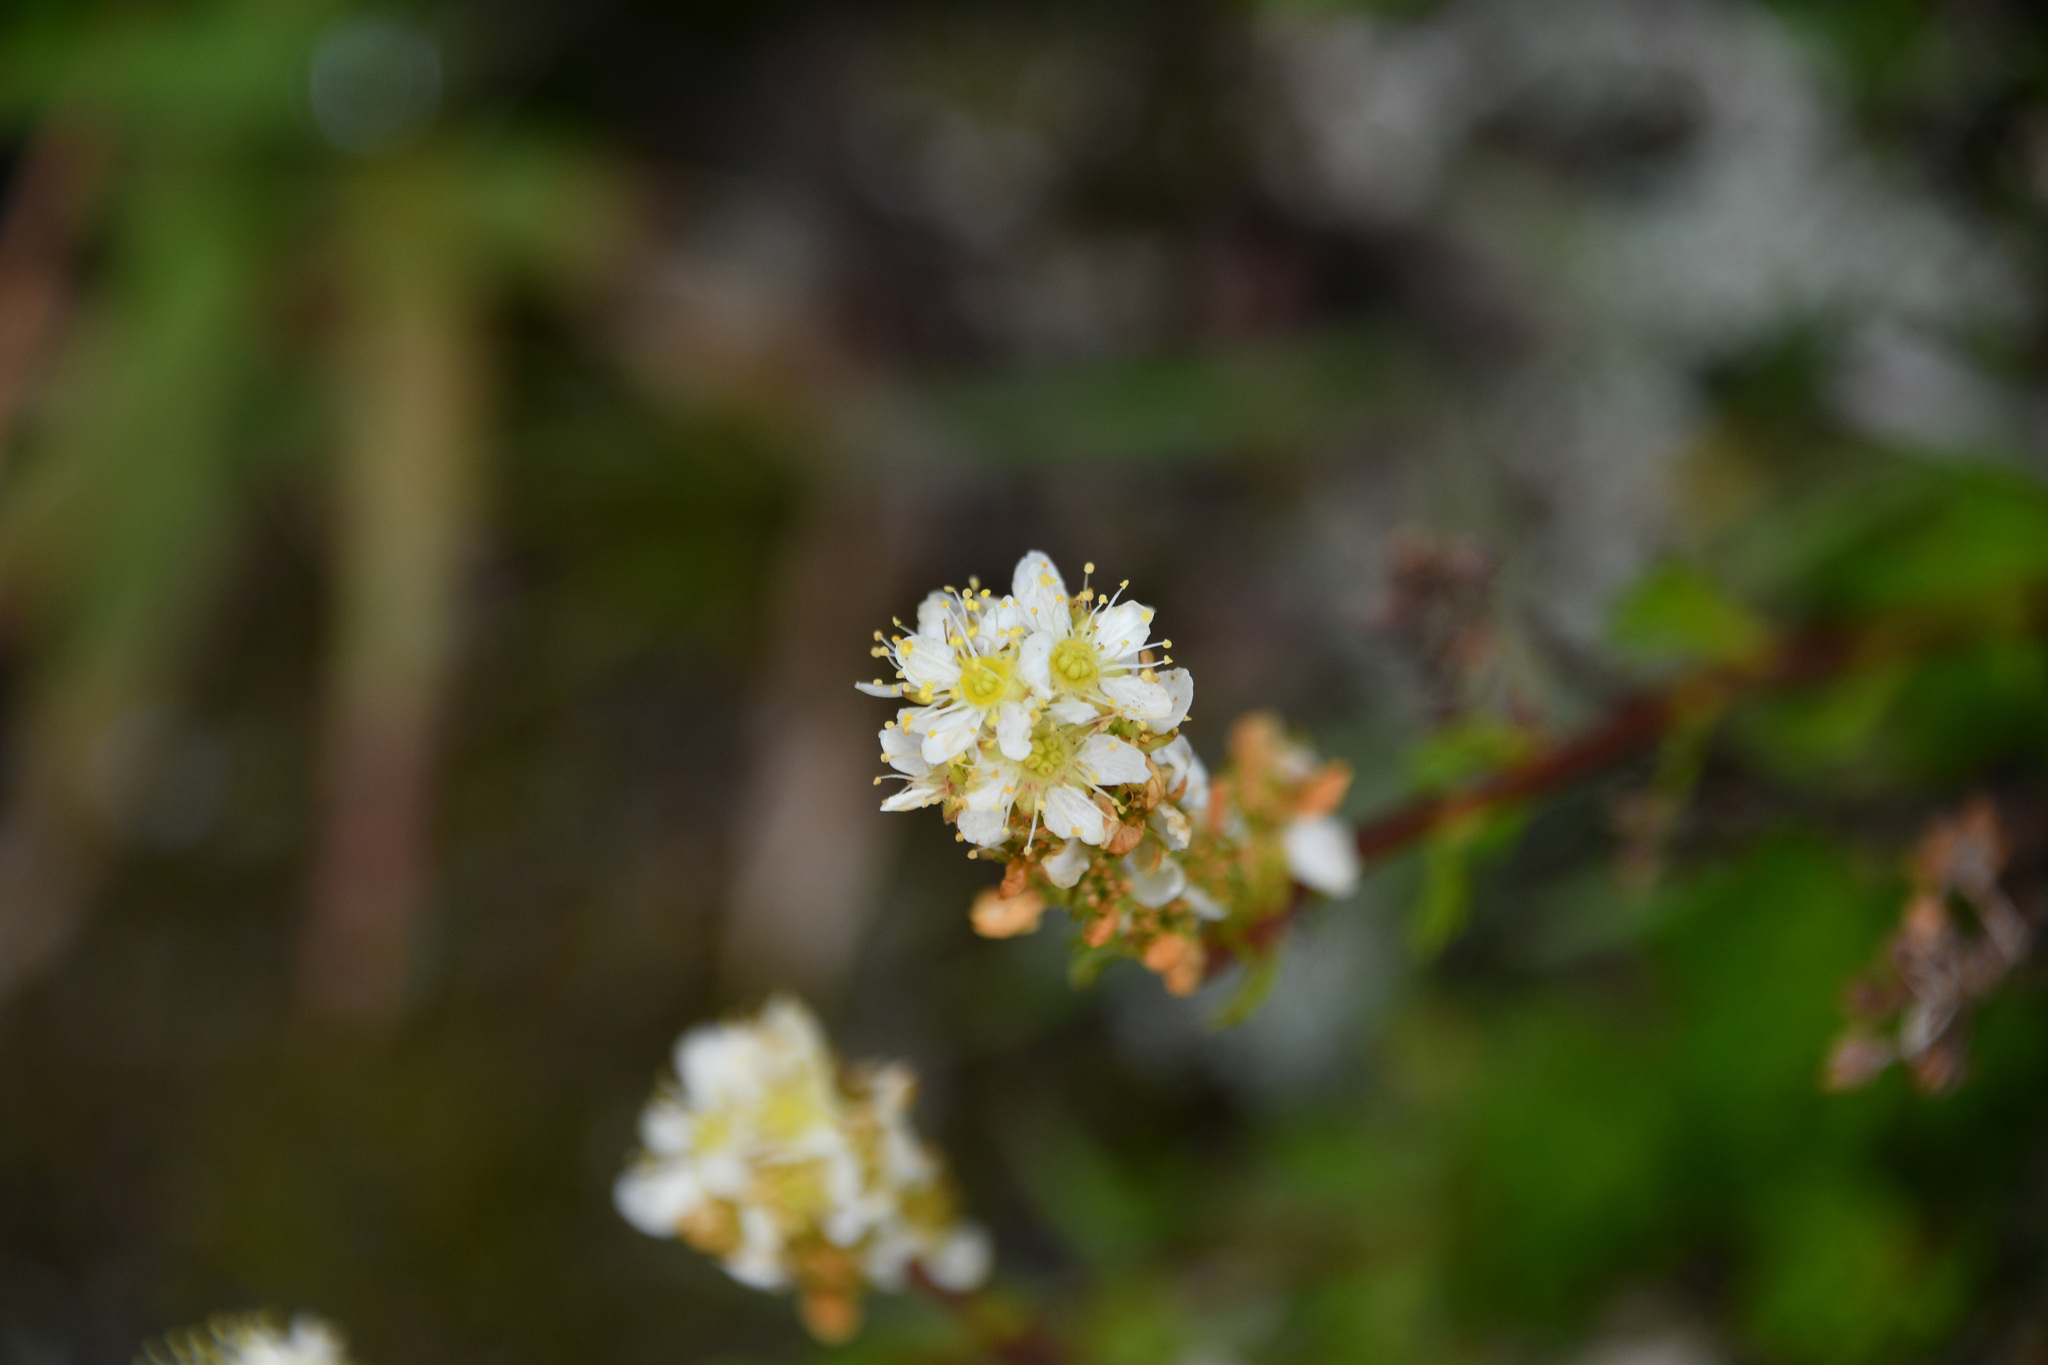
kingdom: Plantae
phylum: Tracheophyta
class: Magnoliopsida
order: Rosales
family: Rosaceae
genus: Luetkea
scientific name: Luetkea pectinata
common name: Partridgefoot
